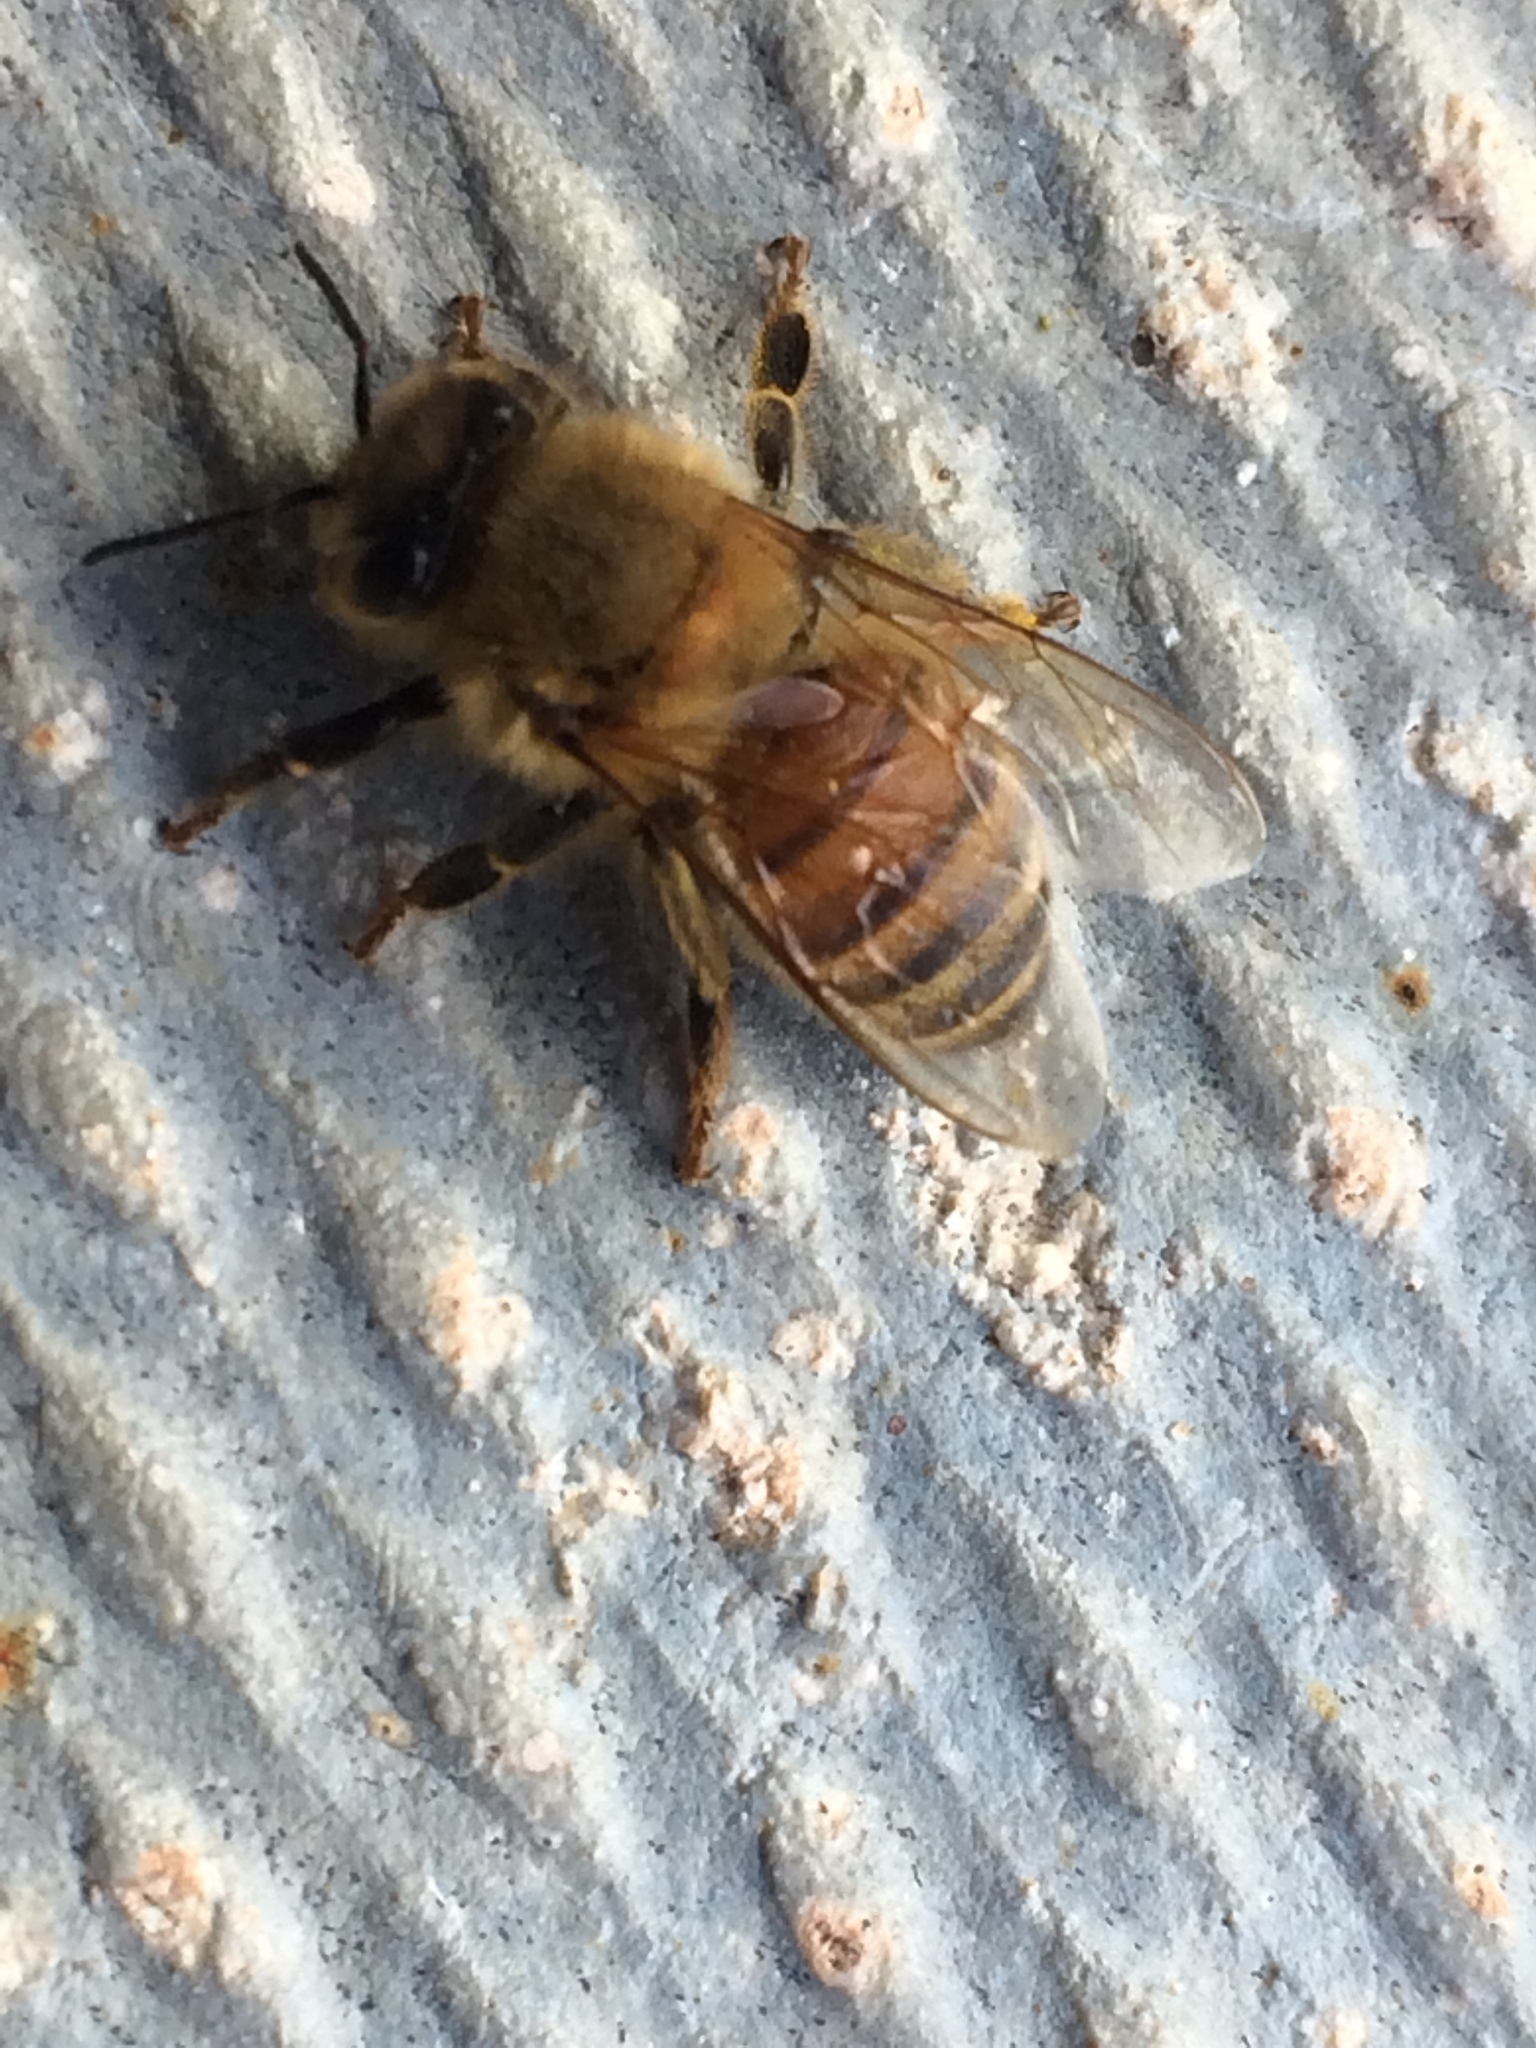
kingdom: Animalia
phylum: Arthropoda
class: Insecta
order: Hymenoptera
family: Apidae
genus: Apis
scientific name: Apis mellifera
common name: Honey bee
